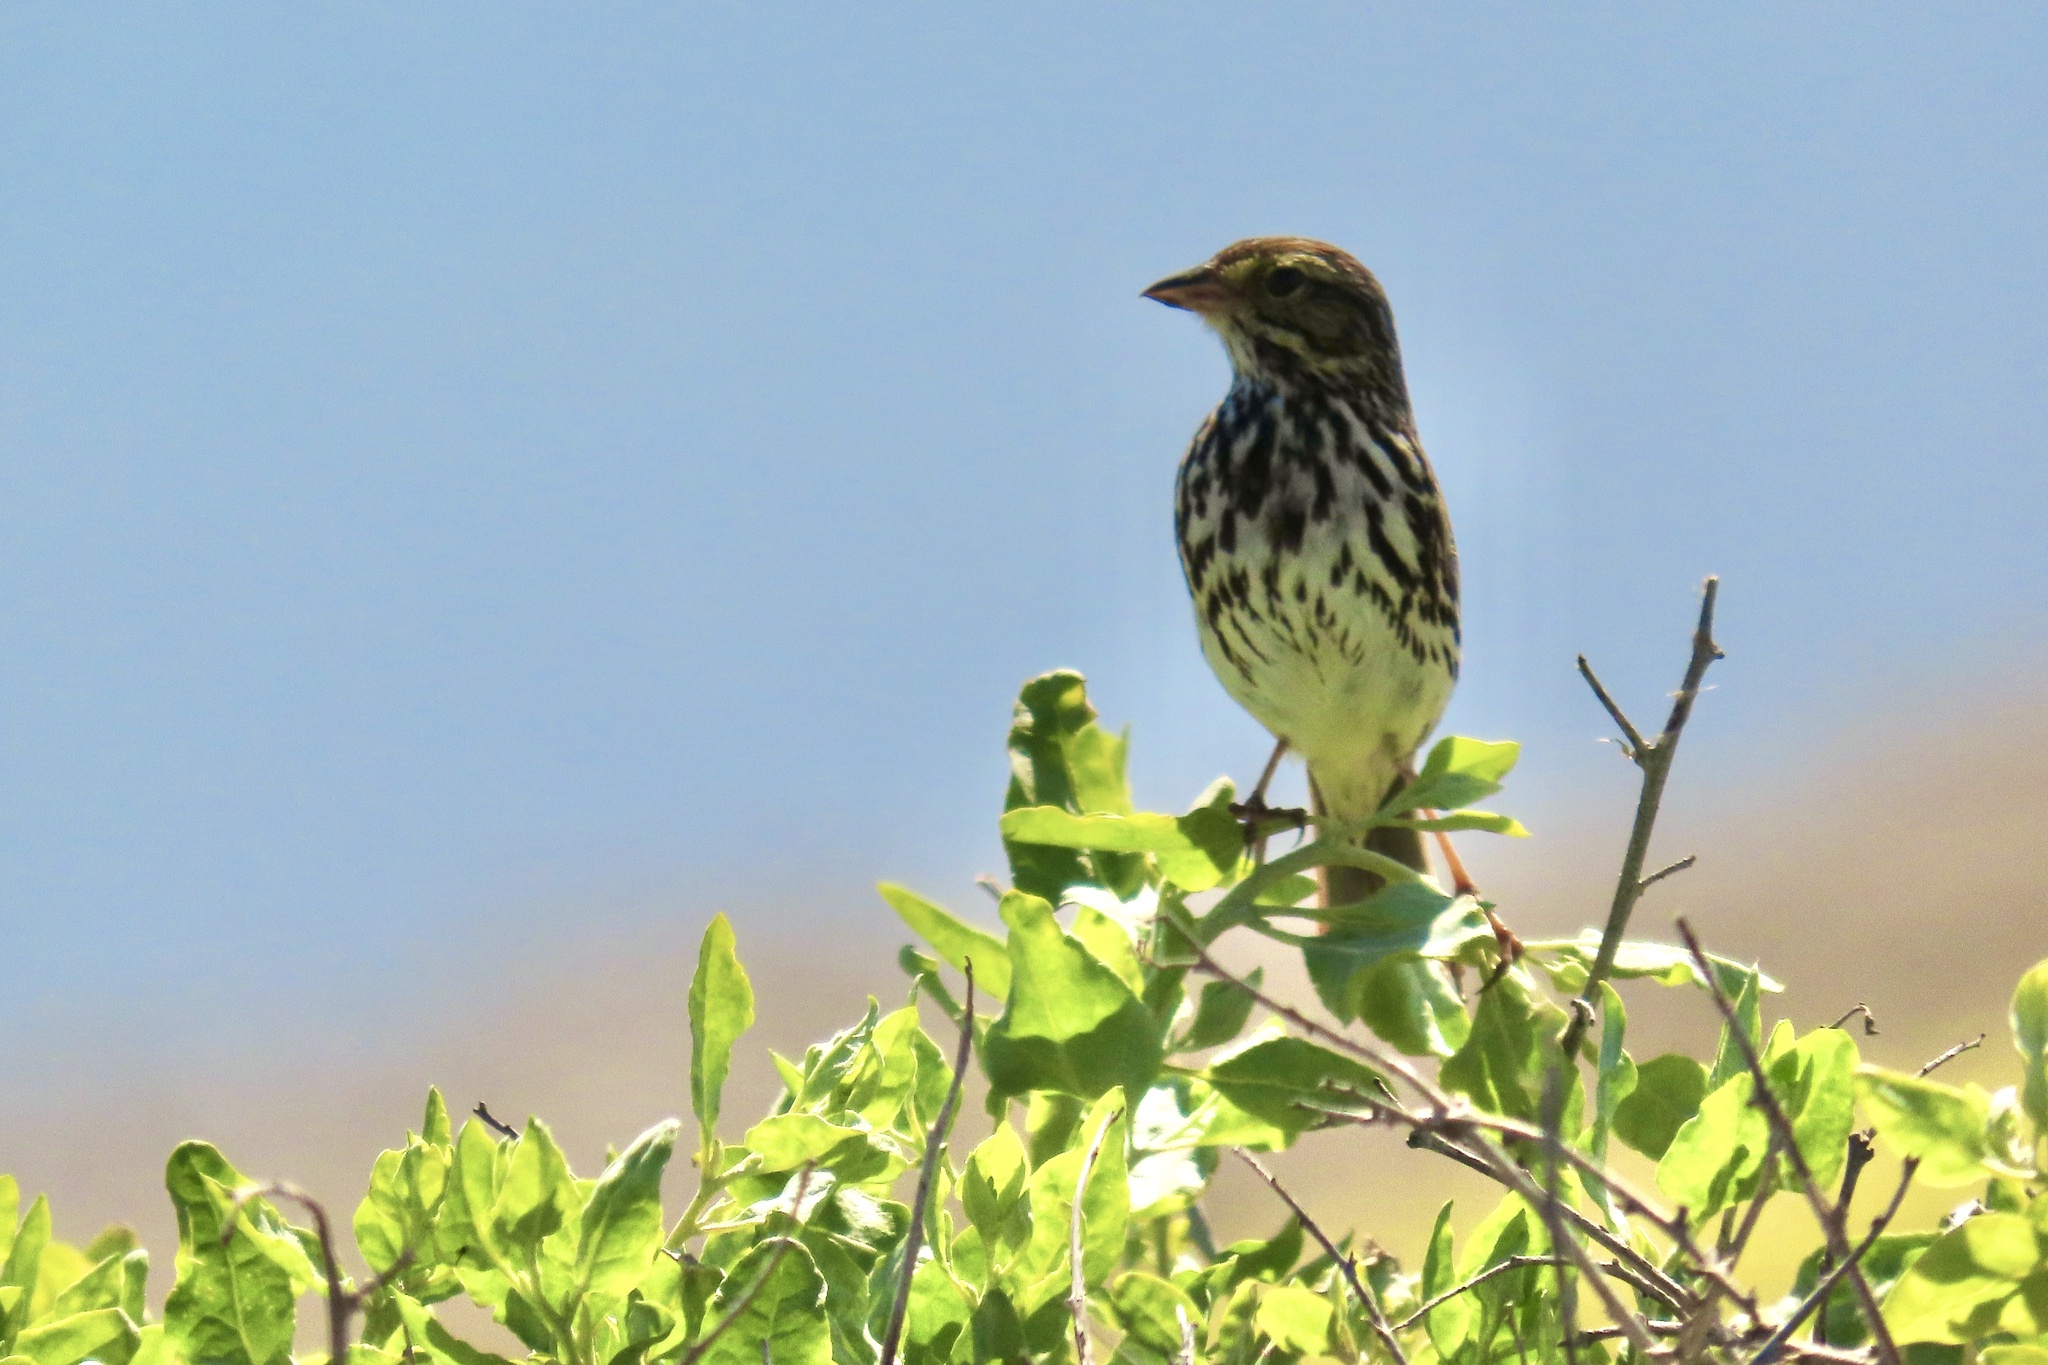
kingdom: Animalia
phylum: Chordata
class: Aves
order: Passeriformes
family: Passerellidae
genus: Passerculus
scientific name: Passerculus sandwichensis
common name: Savannah sparrow
